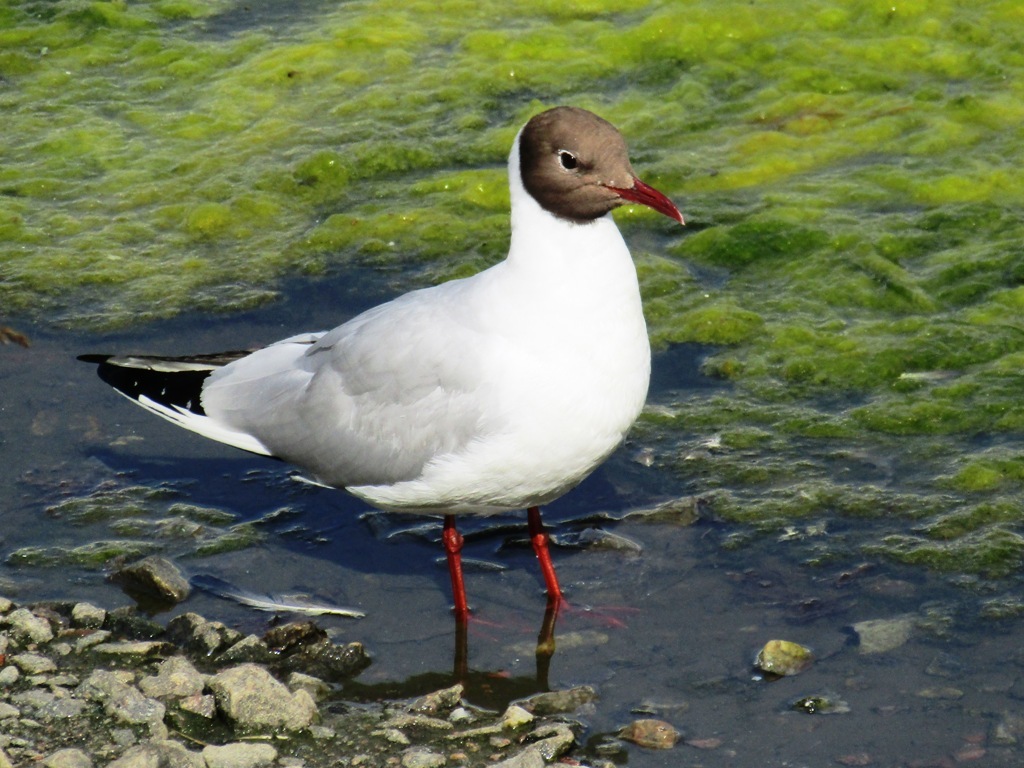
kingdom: Animalia
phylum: Chordata
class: Aves
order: Charadriiformes
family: Laridae
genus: Chroicocephalus
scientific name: Chroicocephalus ridibundus
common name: Black-headed gull
